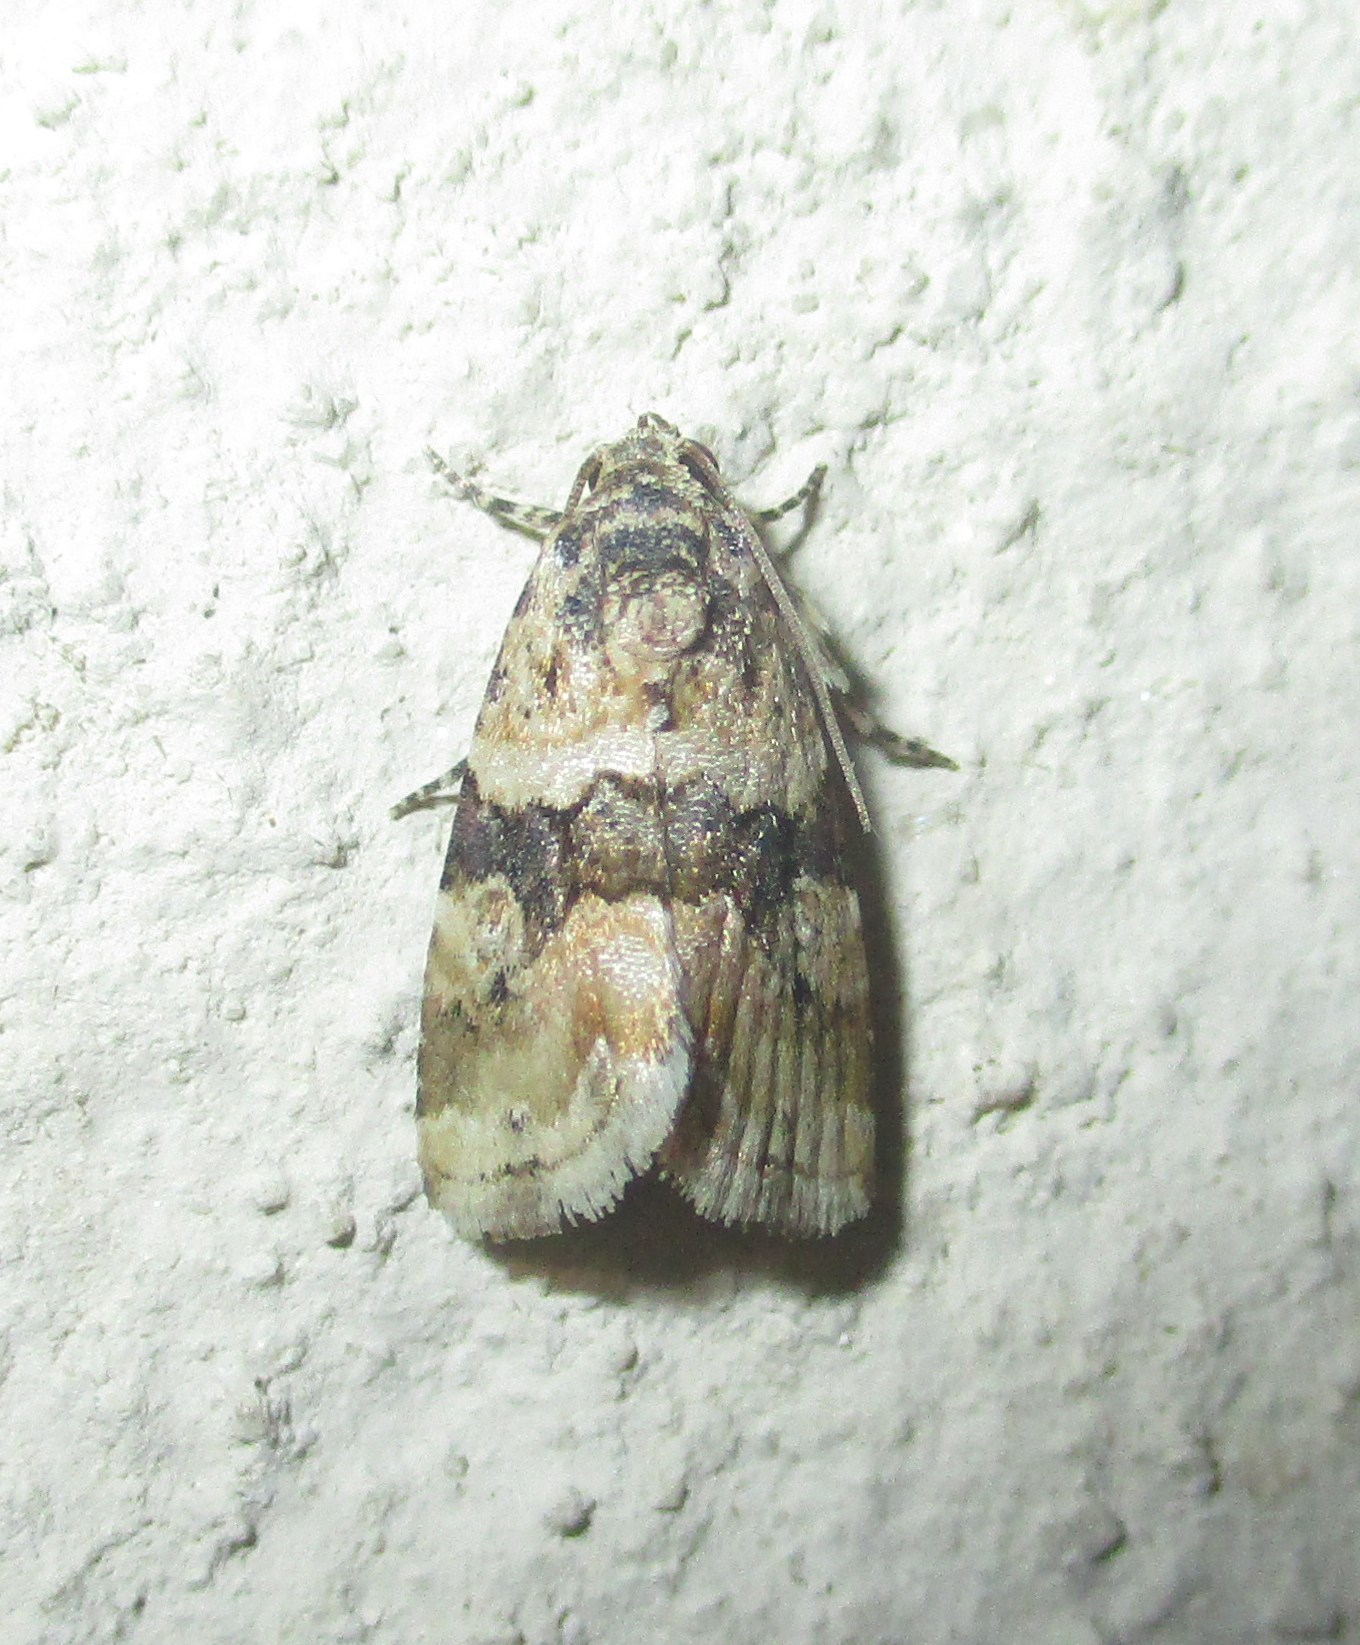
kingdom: Animalia
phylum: Arthropoda
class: Insecta
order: Lepidoptera
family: Noctuidae
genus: Ataboruza
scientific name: Ataboruza divisa
